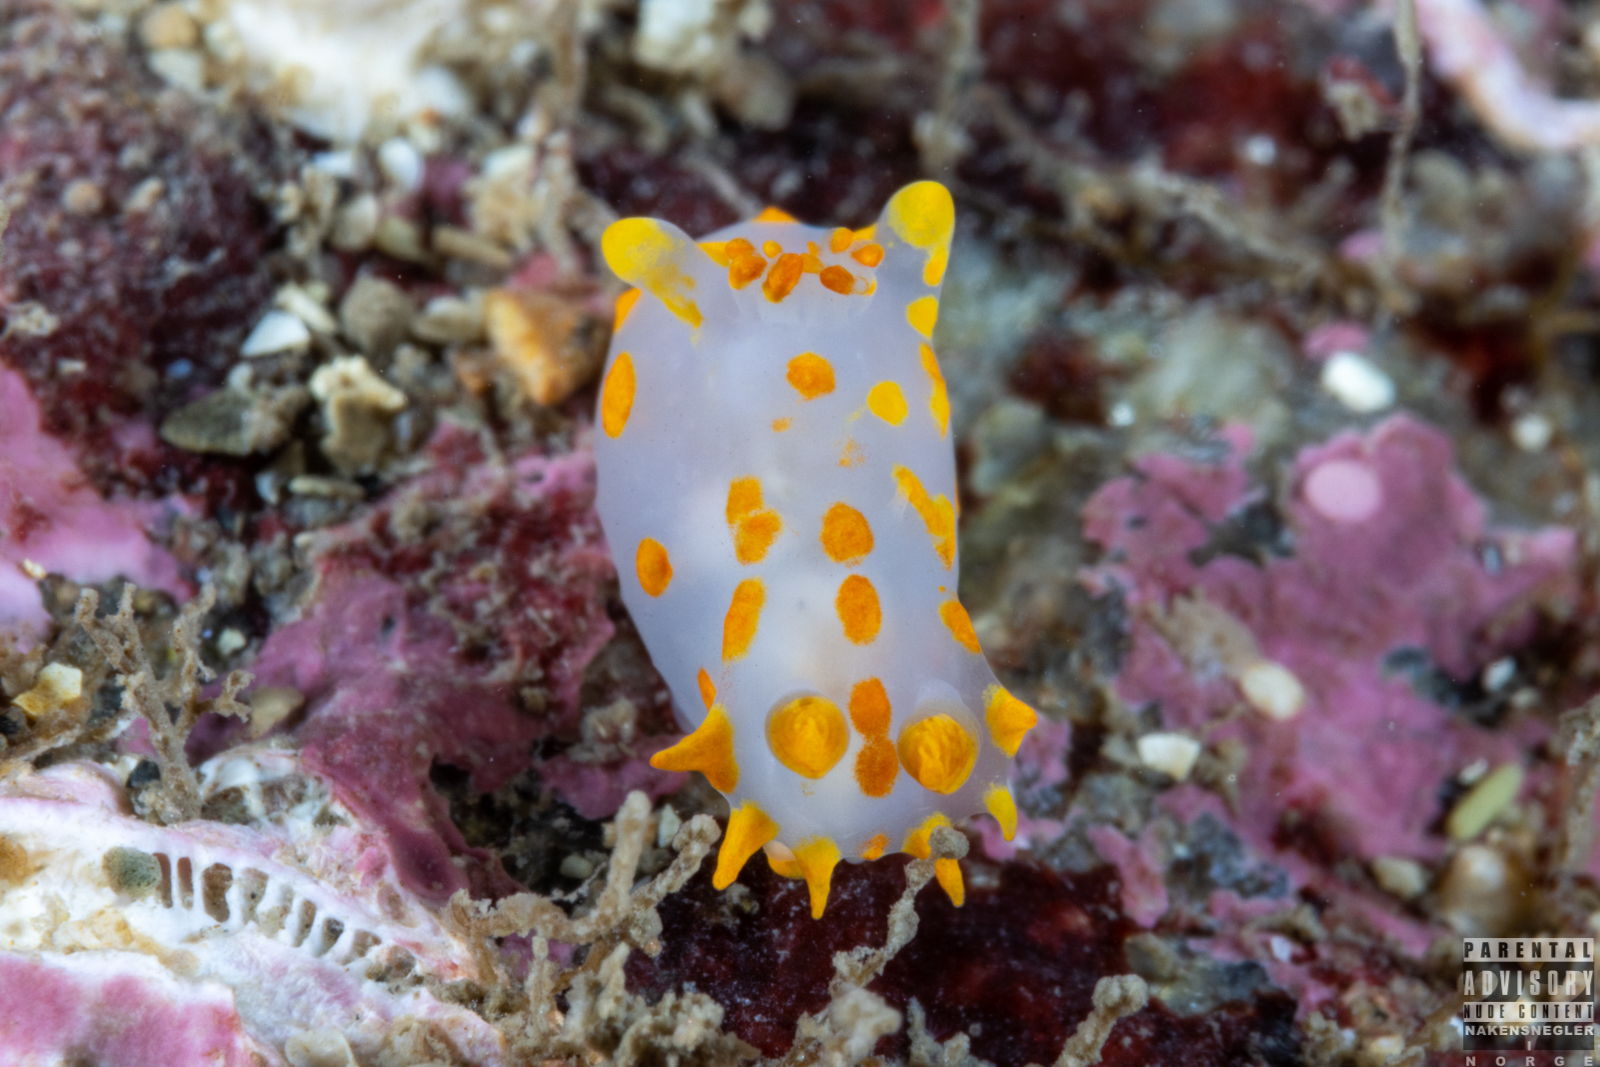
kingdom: Animalia
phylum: Mollusca
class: Gastropoda
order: Nudibranchia
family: Polyceridae
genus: Polycera
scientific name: Polycera quadrilineata
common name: Four-striped polycera
